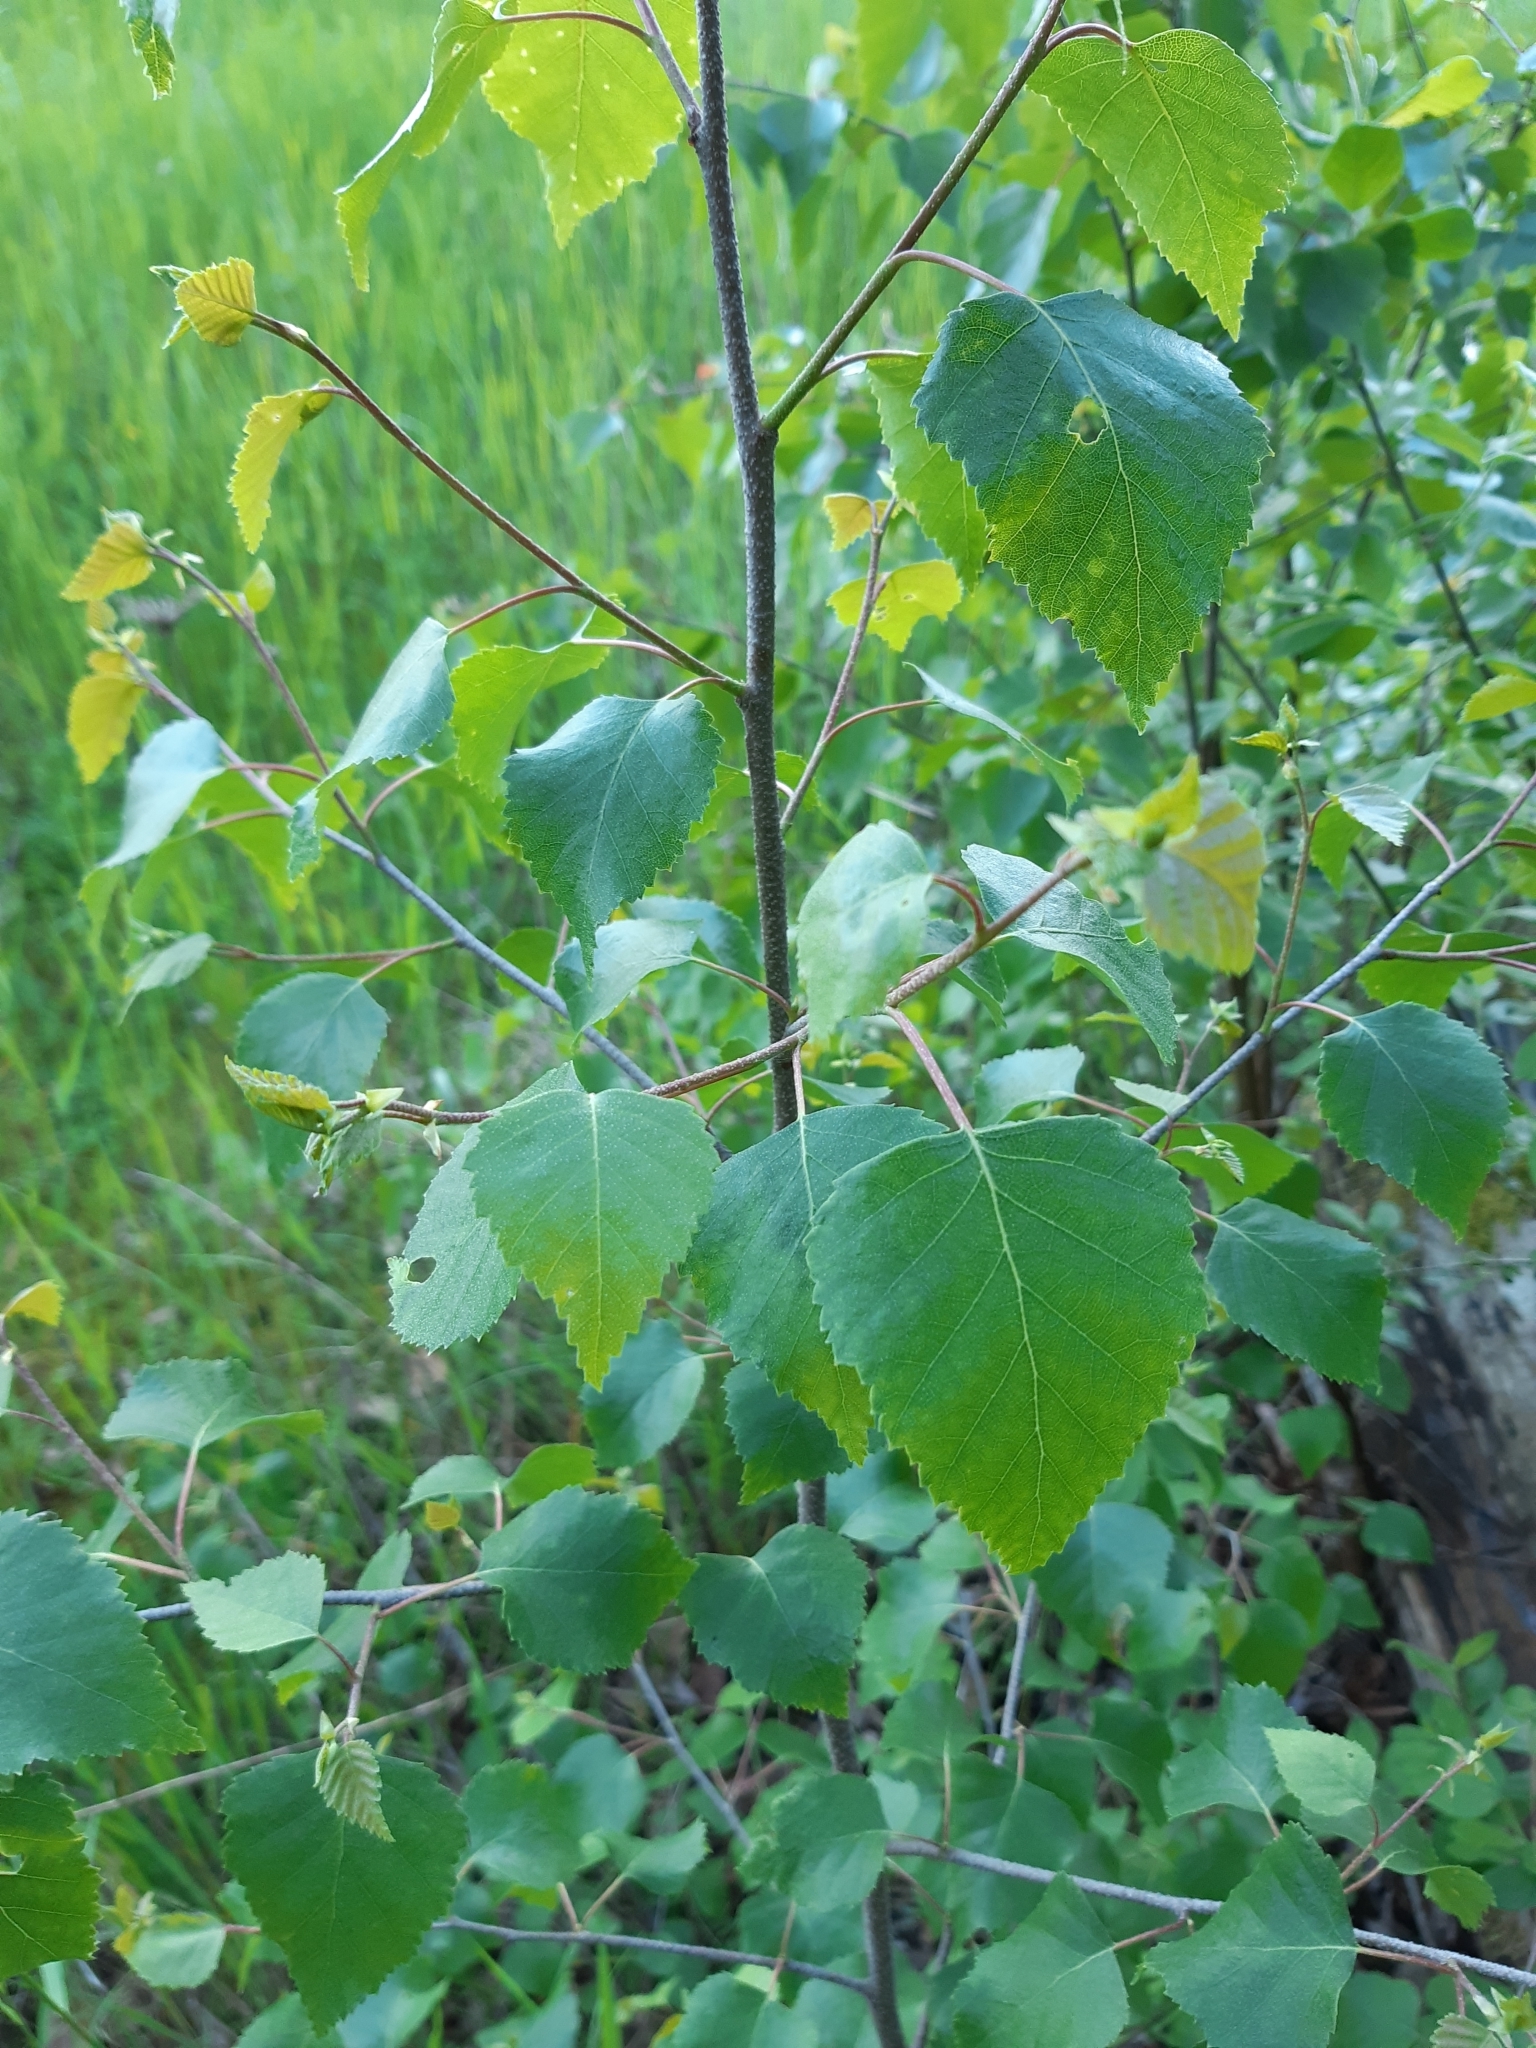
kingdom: Plantae
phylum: Tracheophyta
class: Magnoliopsida
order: Fagales
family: Betulaceae
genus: Betula
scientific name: Betula pendula
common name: Silver birch
